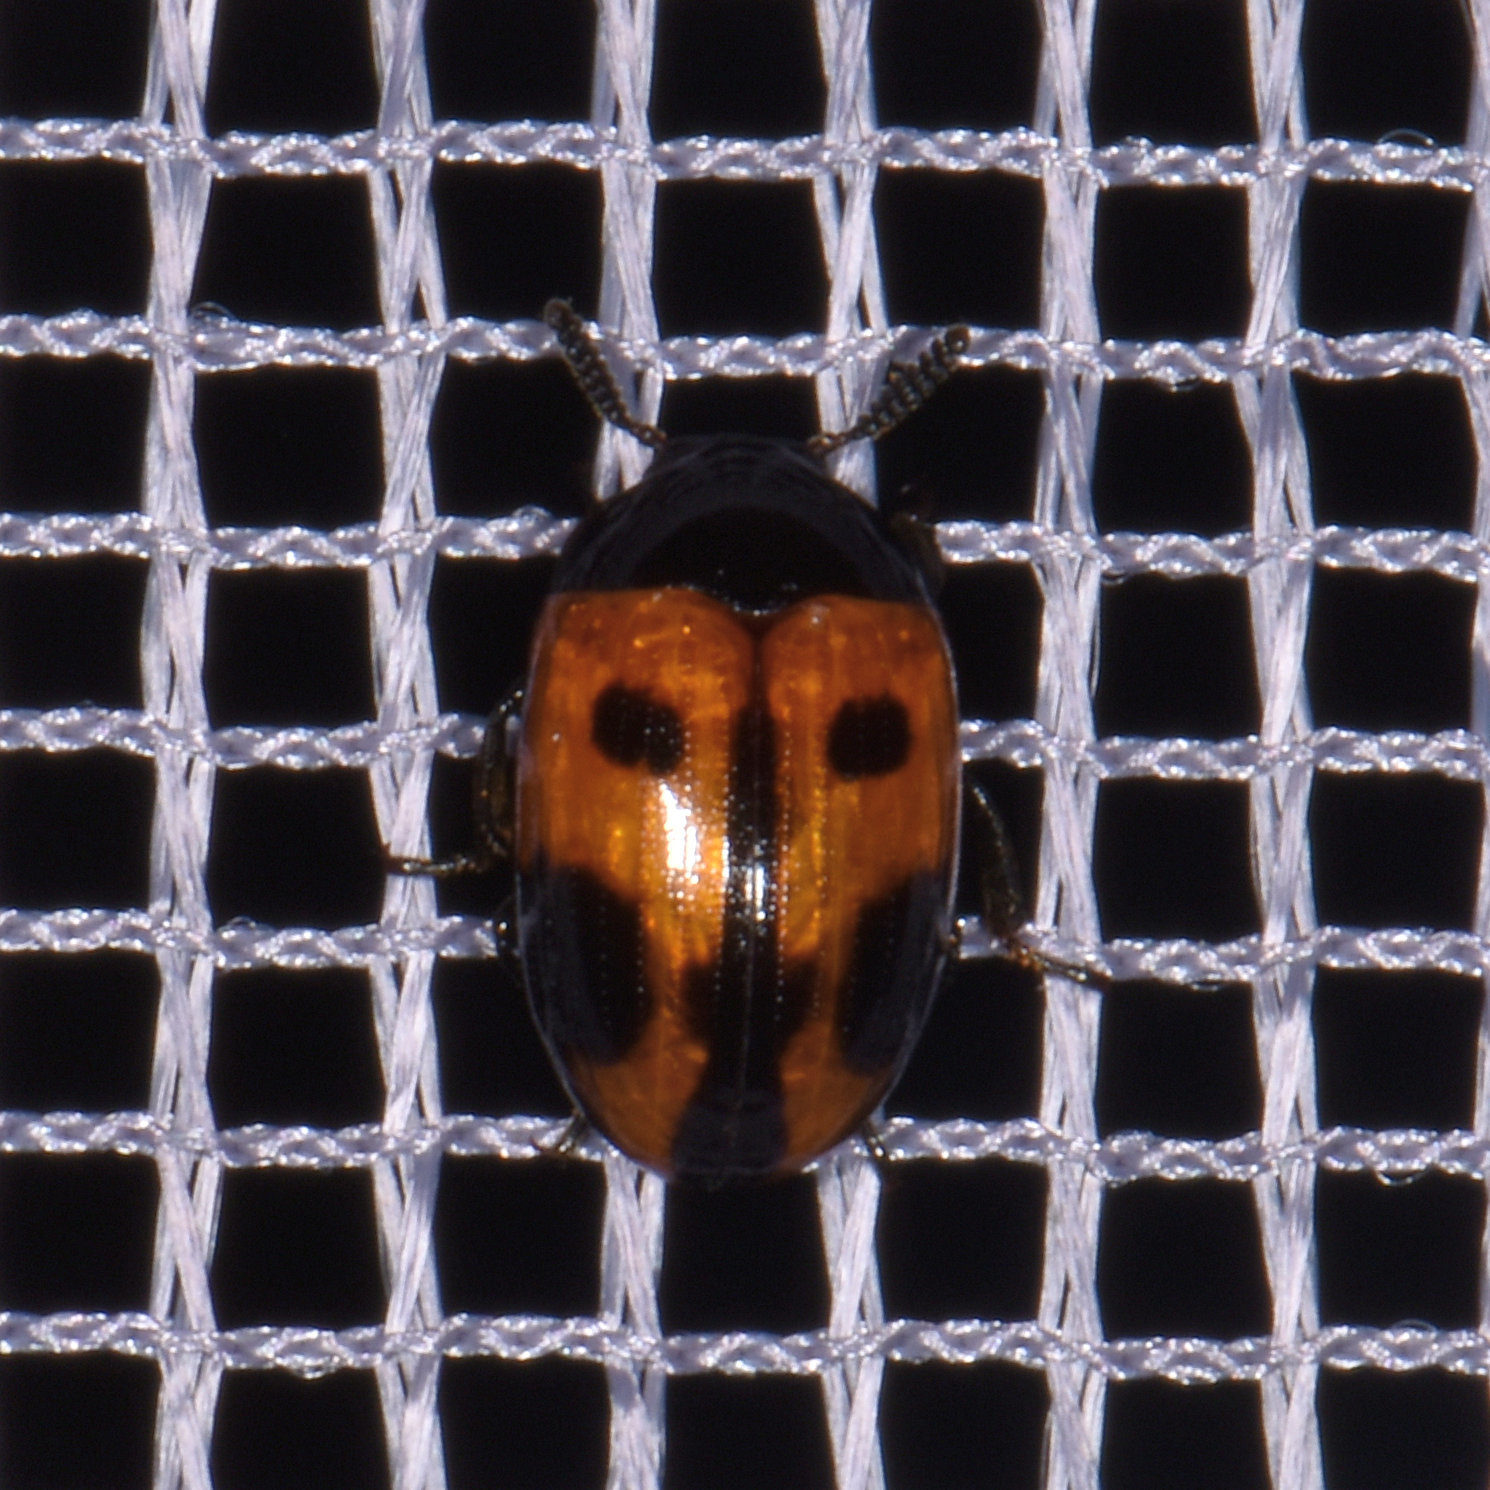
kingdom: Animalia
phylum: Arthropoda
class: Insecta
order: Coleoptera
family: Tenebrionidae
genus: Diaperis
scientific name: Diaperis maculata
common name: Darkling beetle
